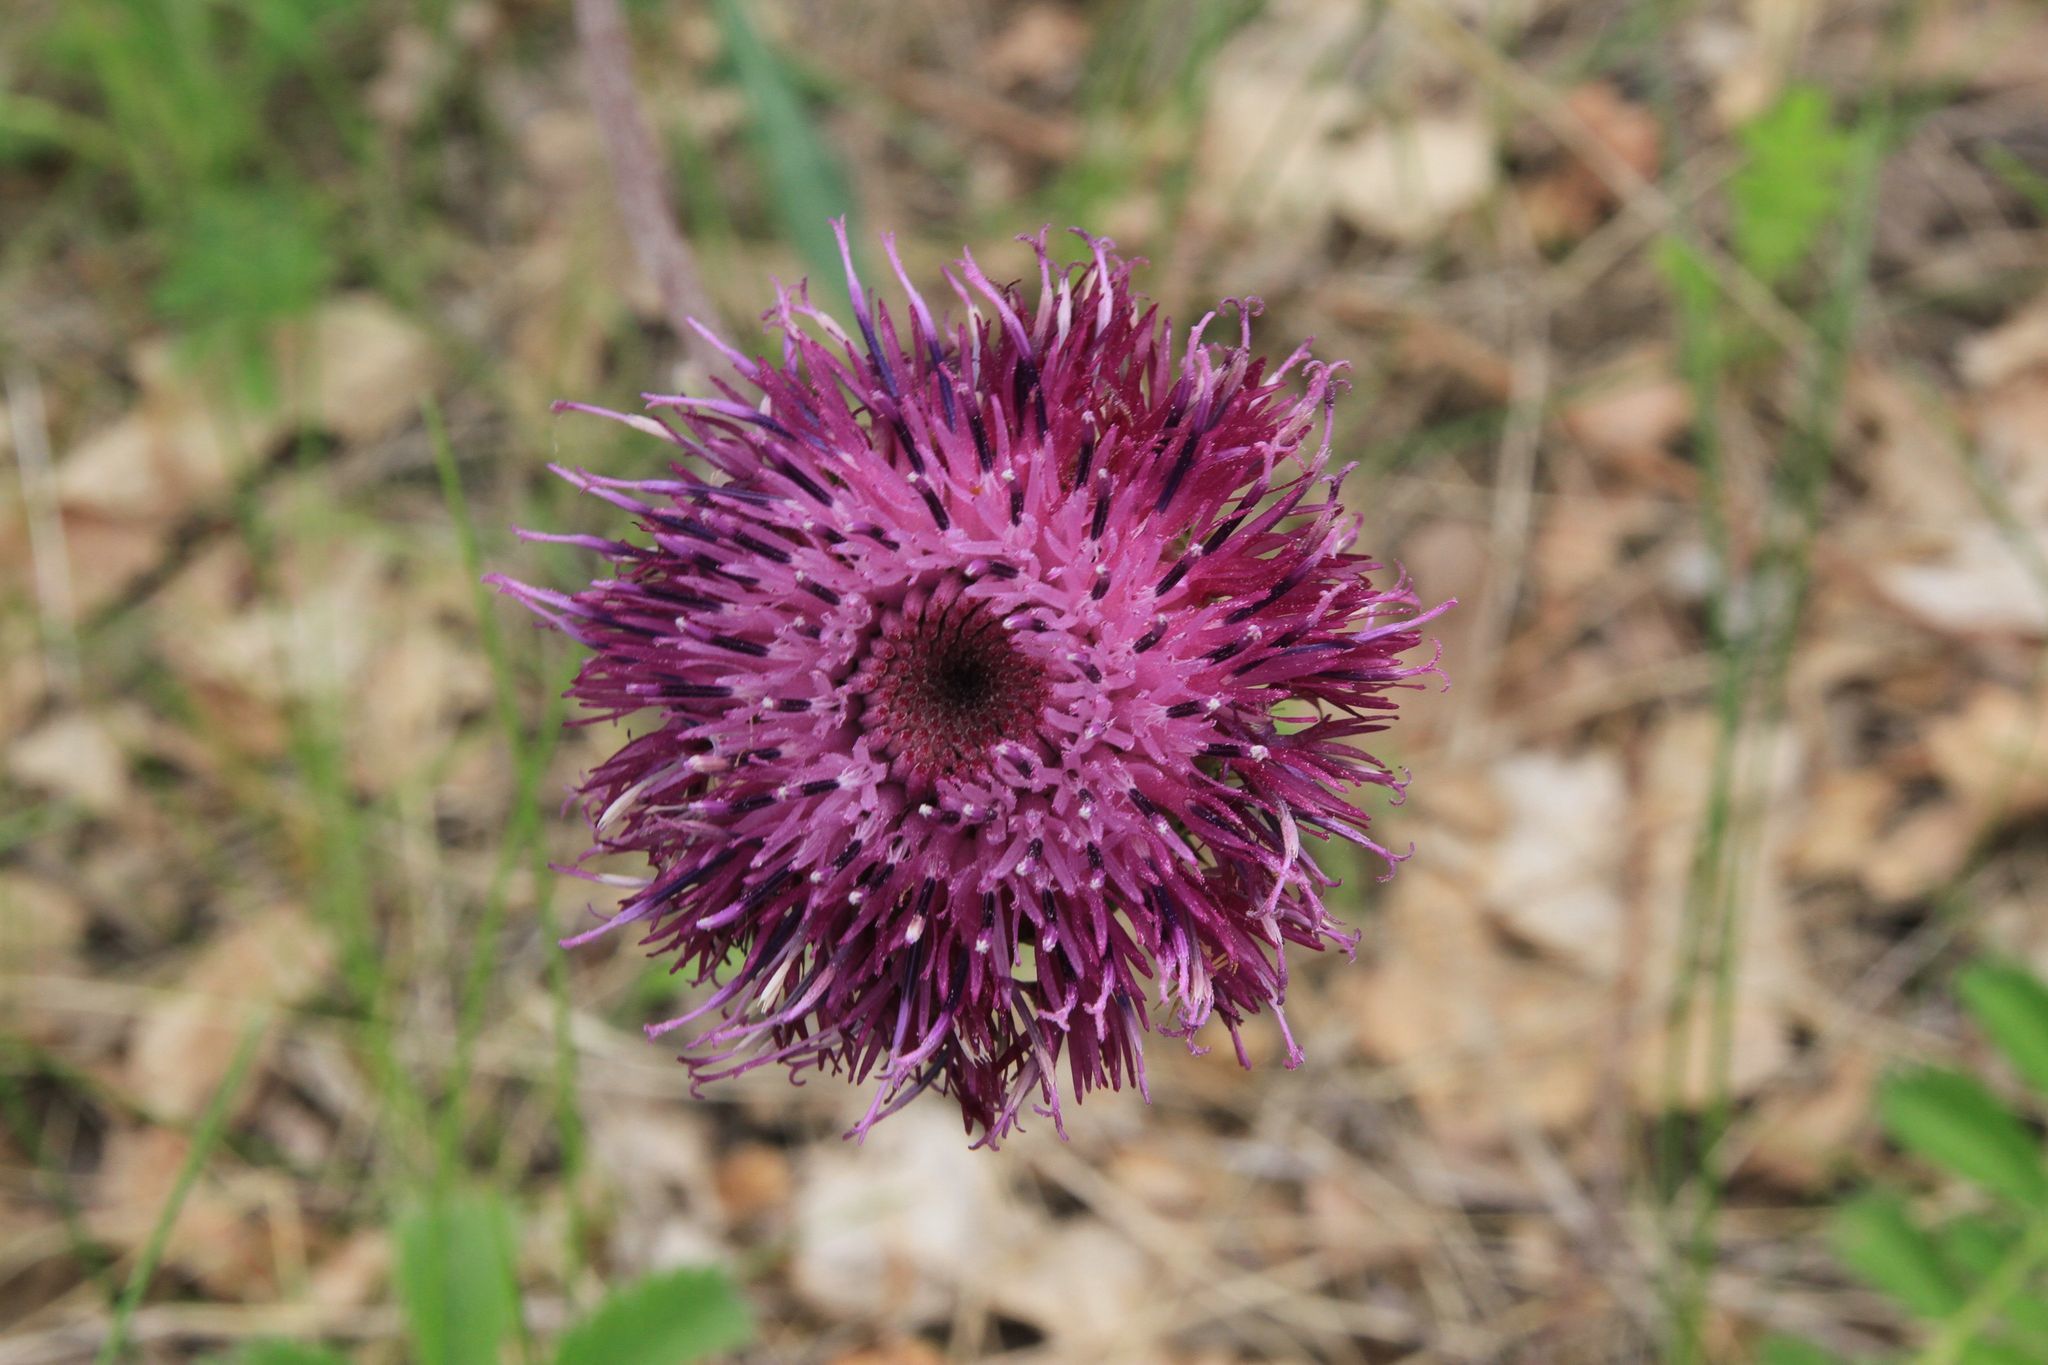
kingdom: Plantae
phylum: Tracheophyta
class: Magnoliopsida
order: Asterales
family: Asteraceae
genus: Jurinea
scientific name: Jurinea arachnoidea
